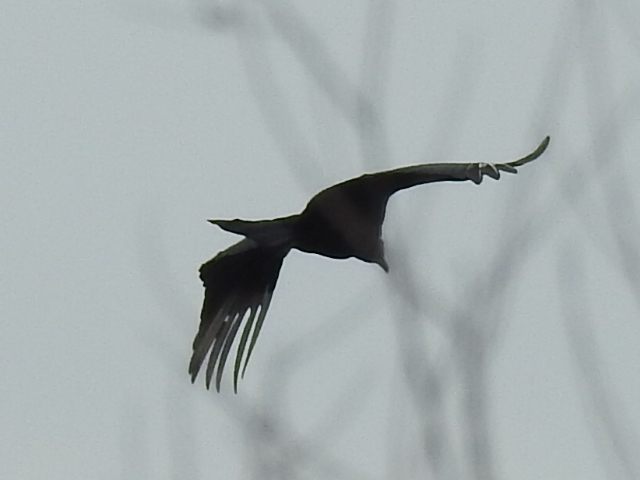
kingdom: Animalia
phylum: Chordata
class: Aves
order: Accipitriformes
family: Cathartidae
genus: Coragyps
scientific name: Coragyps atratus
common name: Black vulture
